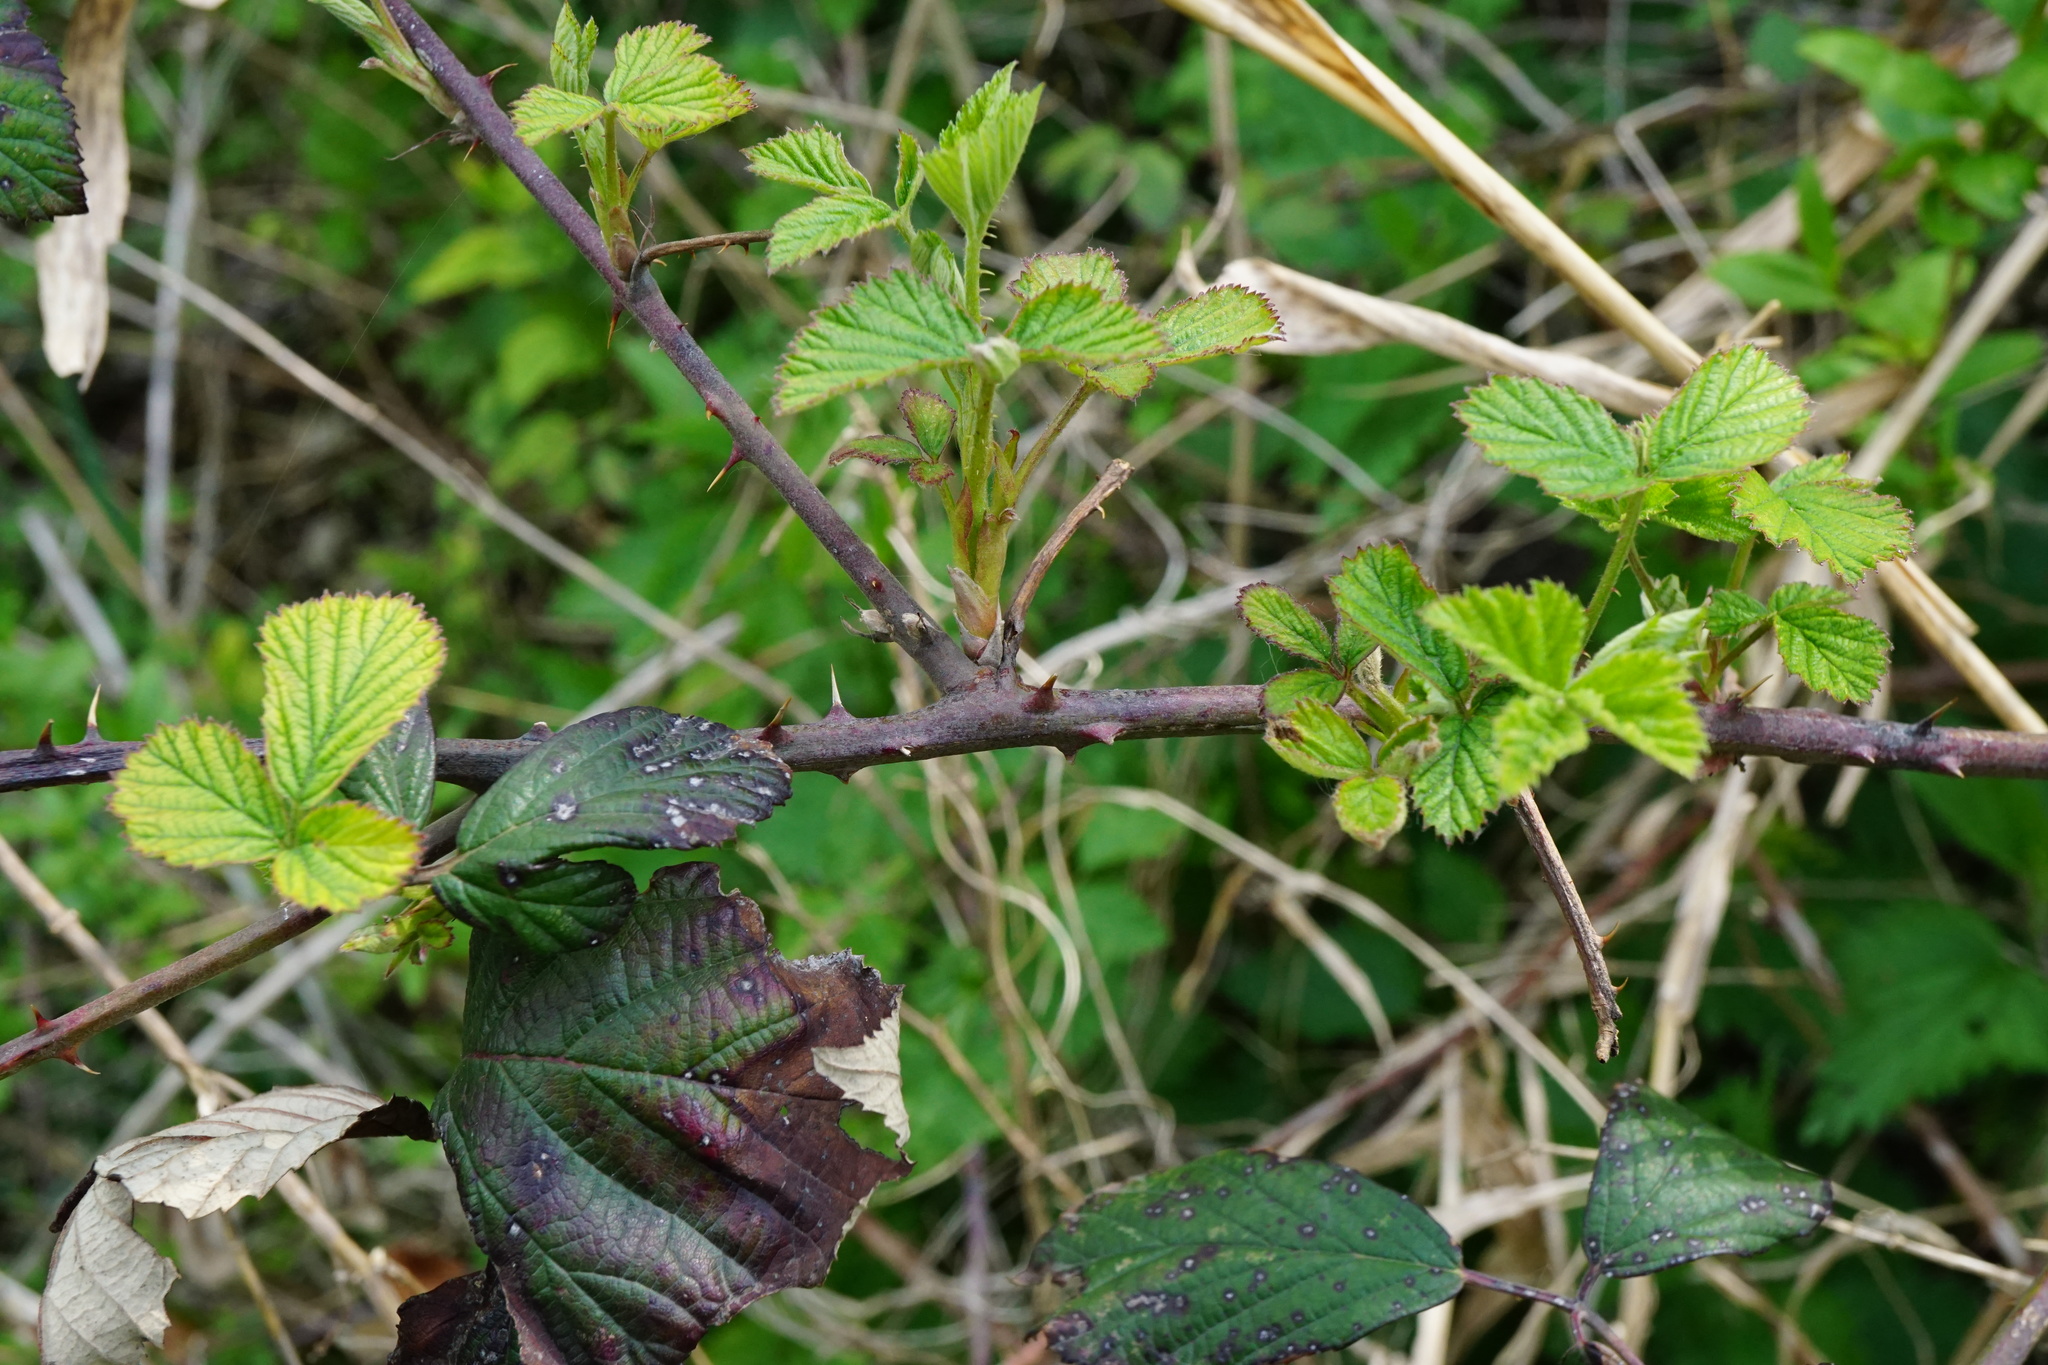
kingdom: Plantae
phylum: Tracheophyta
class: Magnoliopsida
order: Rosales
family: Rosaceae
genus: Rubus
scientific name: Rubus
